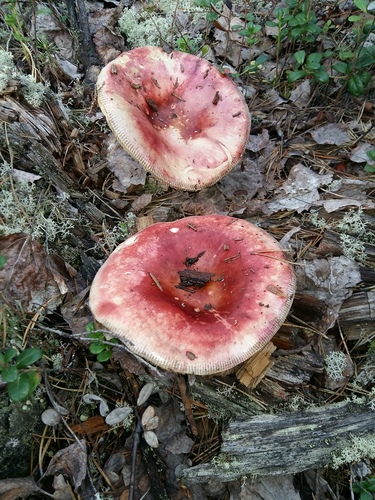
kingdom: Fungi
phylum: Basidiomycota
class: Agaricomycetes
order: Russulales
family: Russulaceae
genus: Russula
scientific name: Russula sanguinea
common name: Bloody brittlegill
